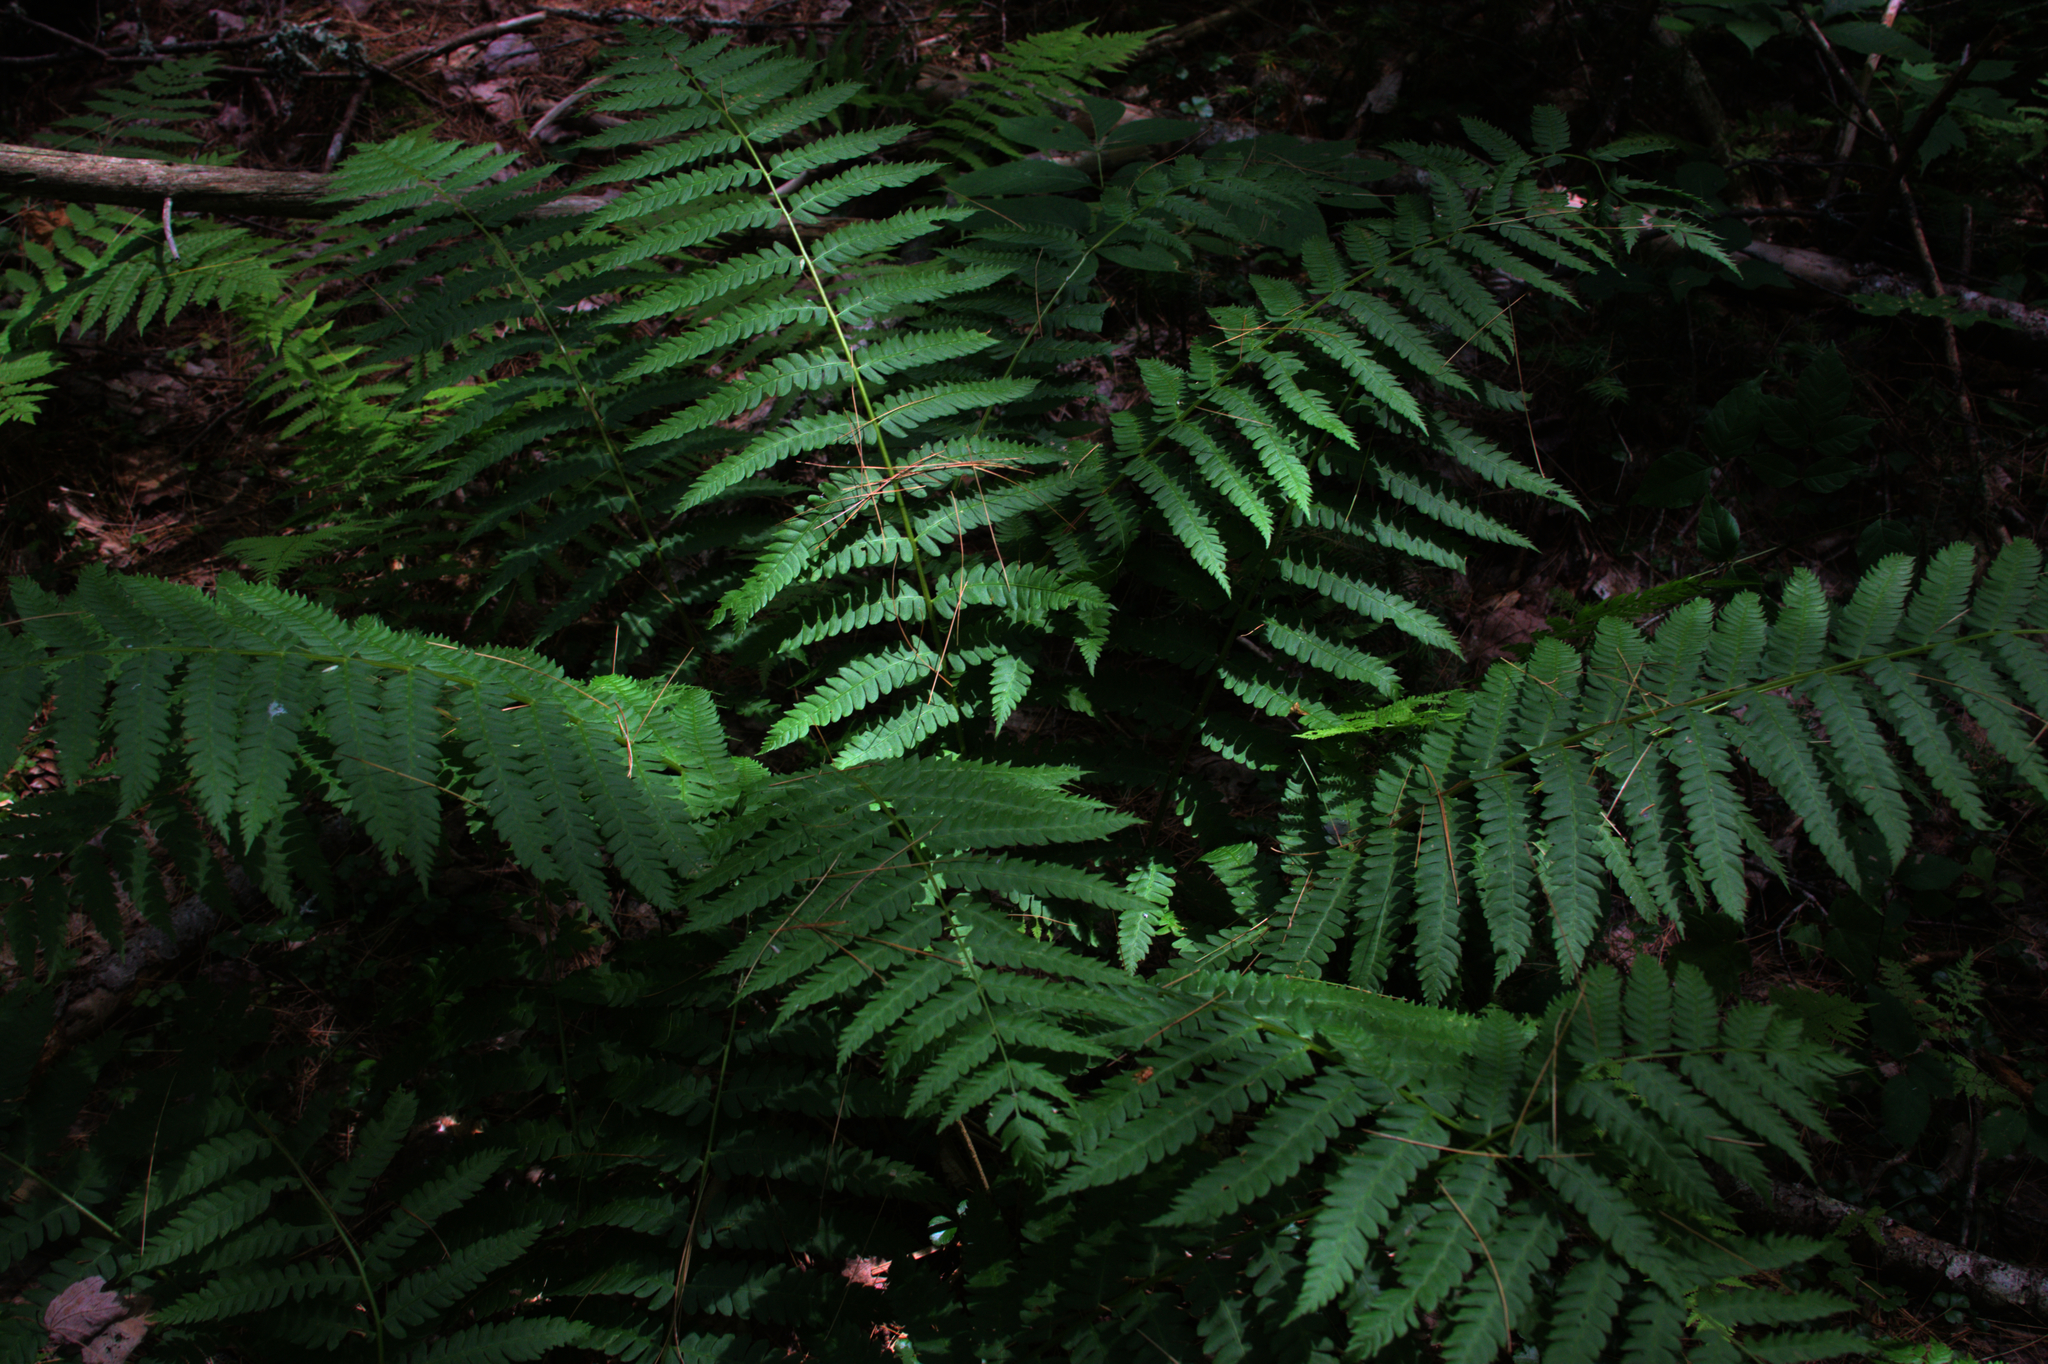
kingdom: Plantae
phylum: Tracheophyta
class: Polypodiopsida
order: Osmundales
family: Osmundaceae
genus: Osmundastrum
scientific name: Osmundastrum cinnamomeum
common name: Cinnamon fern
